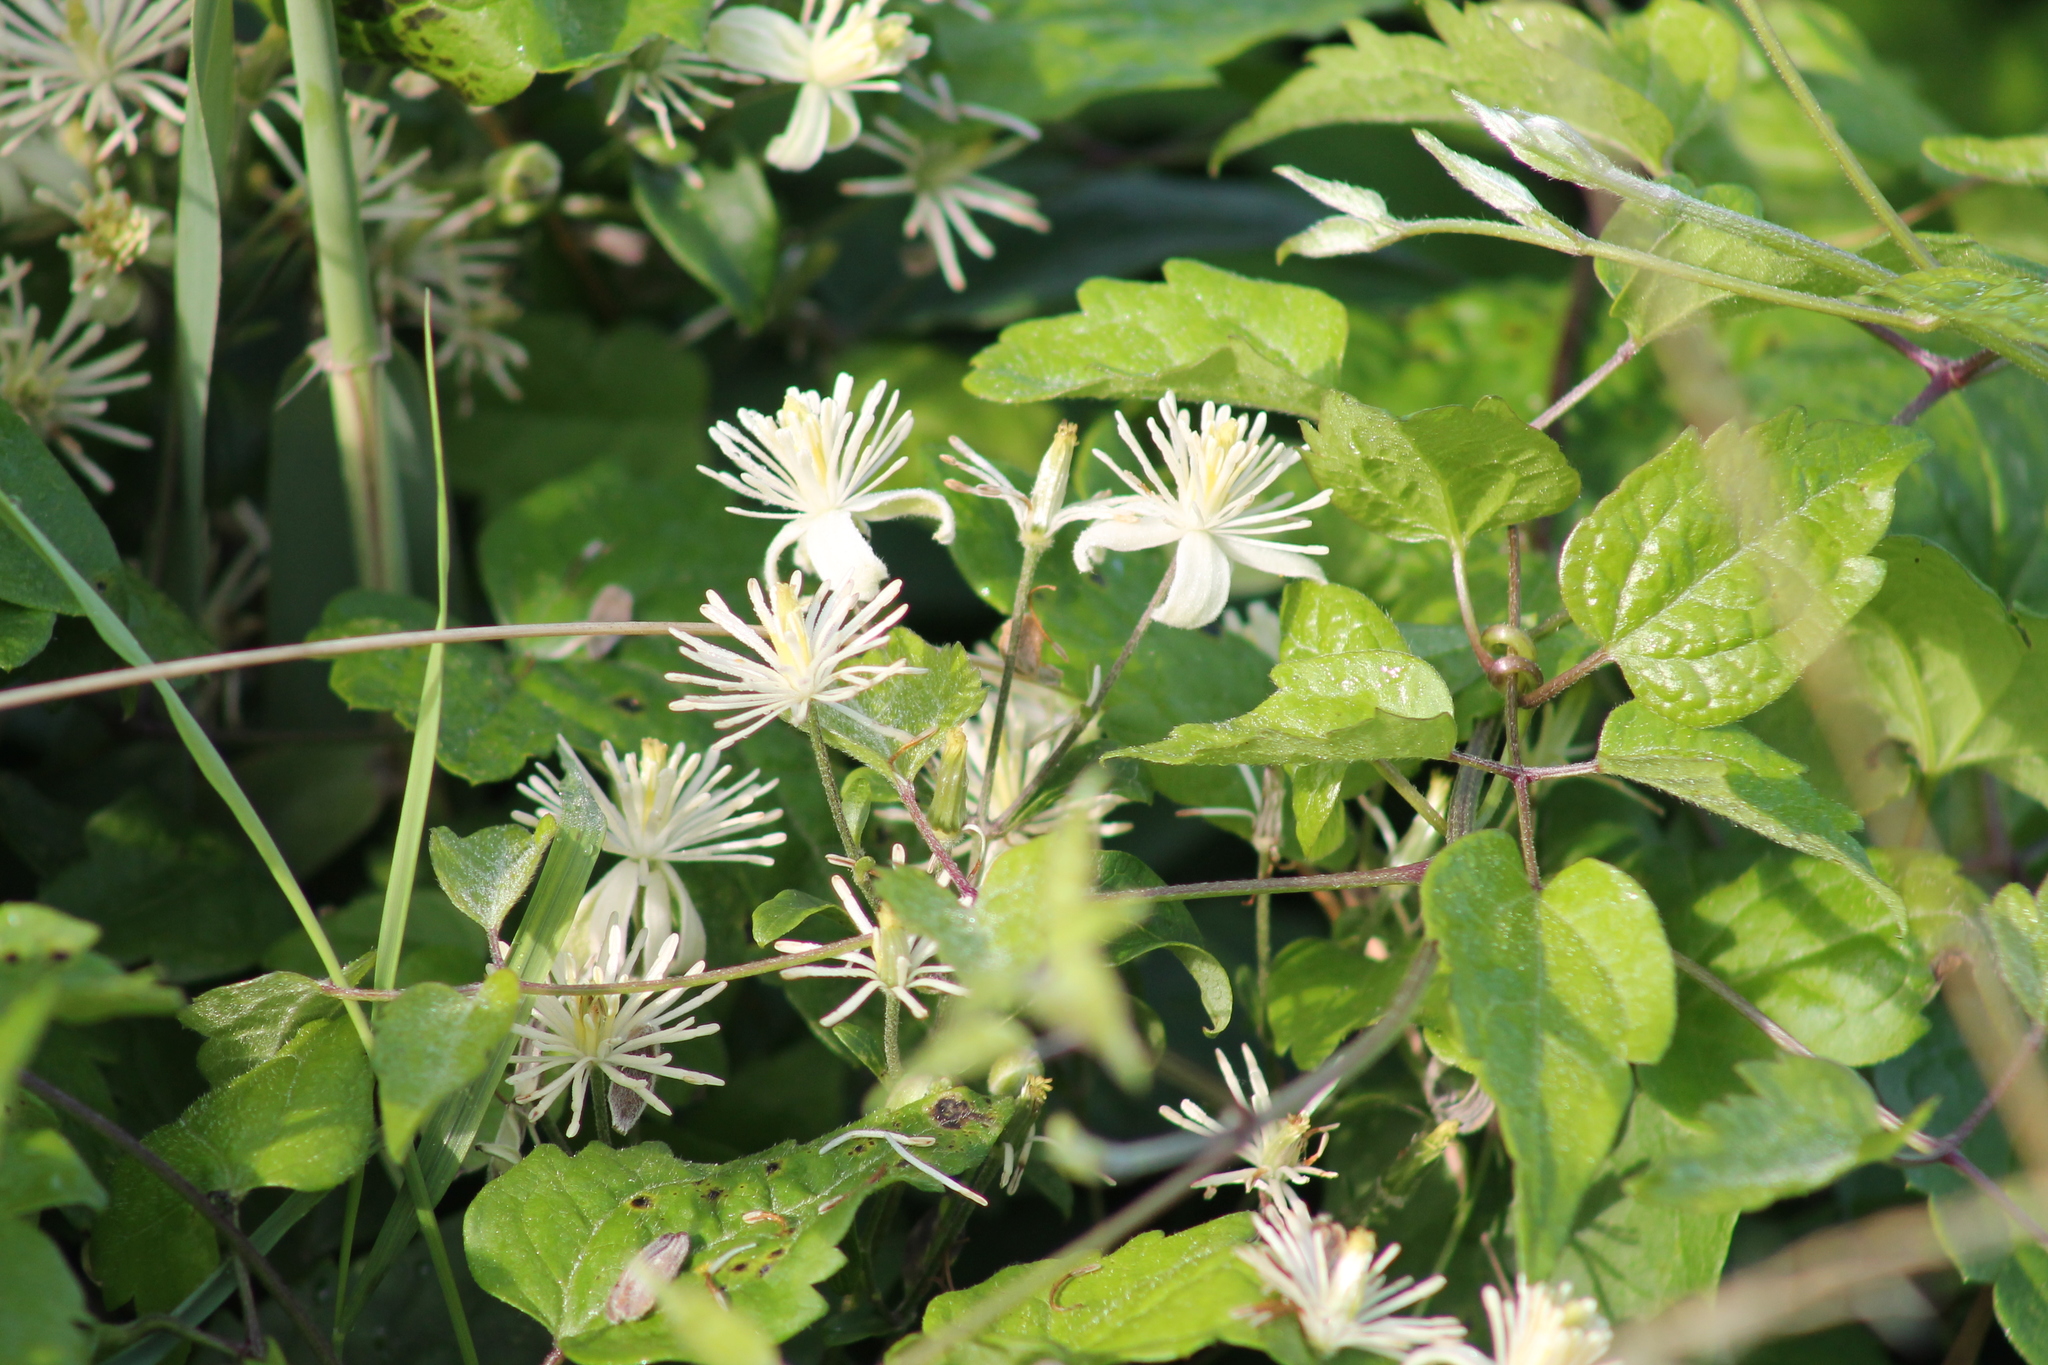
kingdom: Plantae
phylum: Tracheophyta
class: Magnoliopsida
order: Ranunculales
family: Ranunculaceae
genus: Clematis
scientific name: Clematis vitalba
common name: Evergreen clematis
